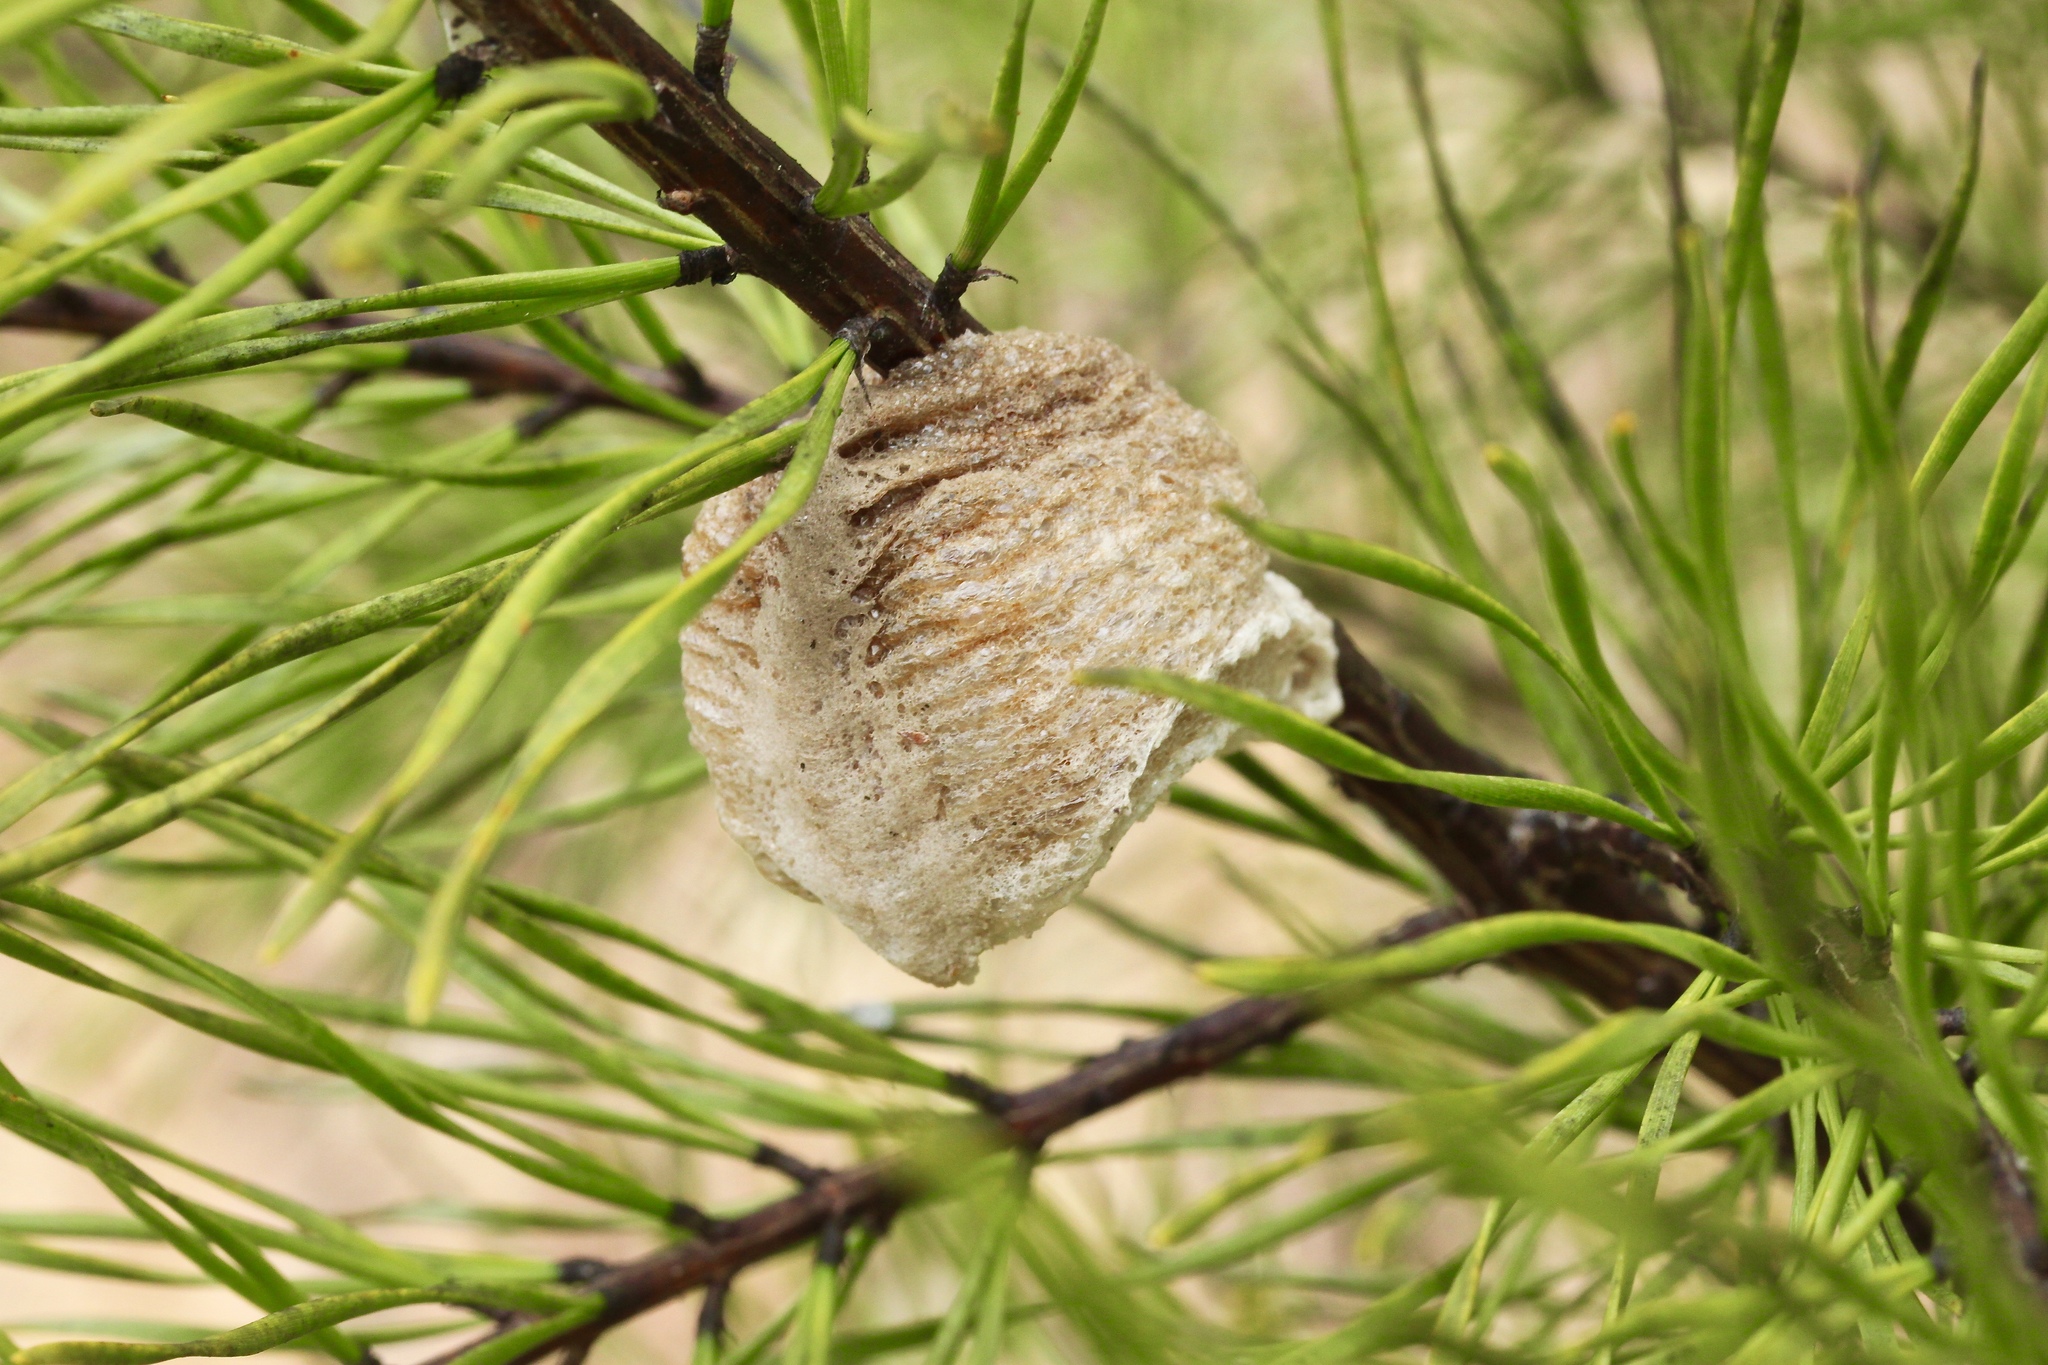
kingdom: Animalia
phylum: Arthropoda
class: Insecta
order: Mantodea
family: Mantidae
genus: Tenodera
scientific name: Tenodera sinensis
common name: Chinese mantis
